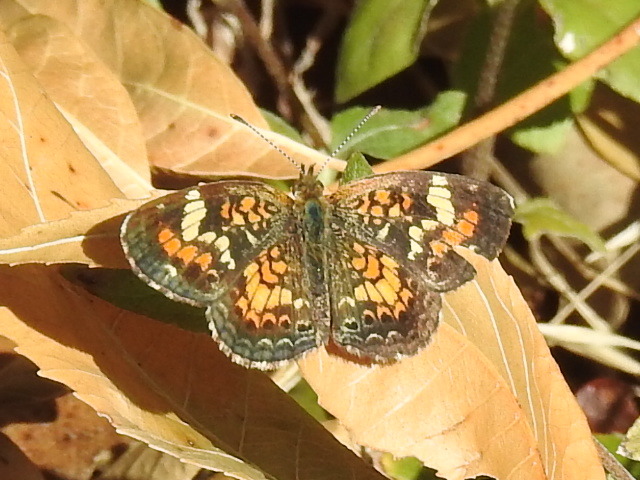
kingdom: Animalia
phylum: Arthropoda
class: Insecta
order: Lepidoptera
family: Nymphalidae
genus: Phyciodes
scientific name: Phyciodes phaon
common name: Phaon crescent
